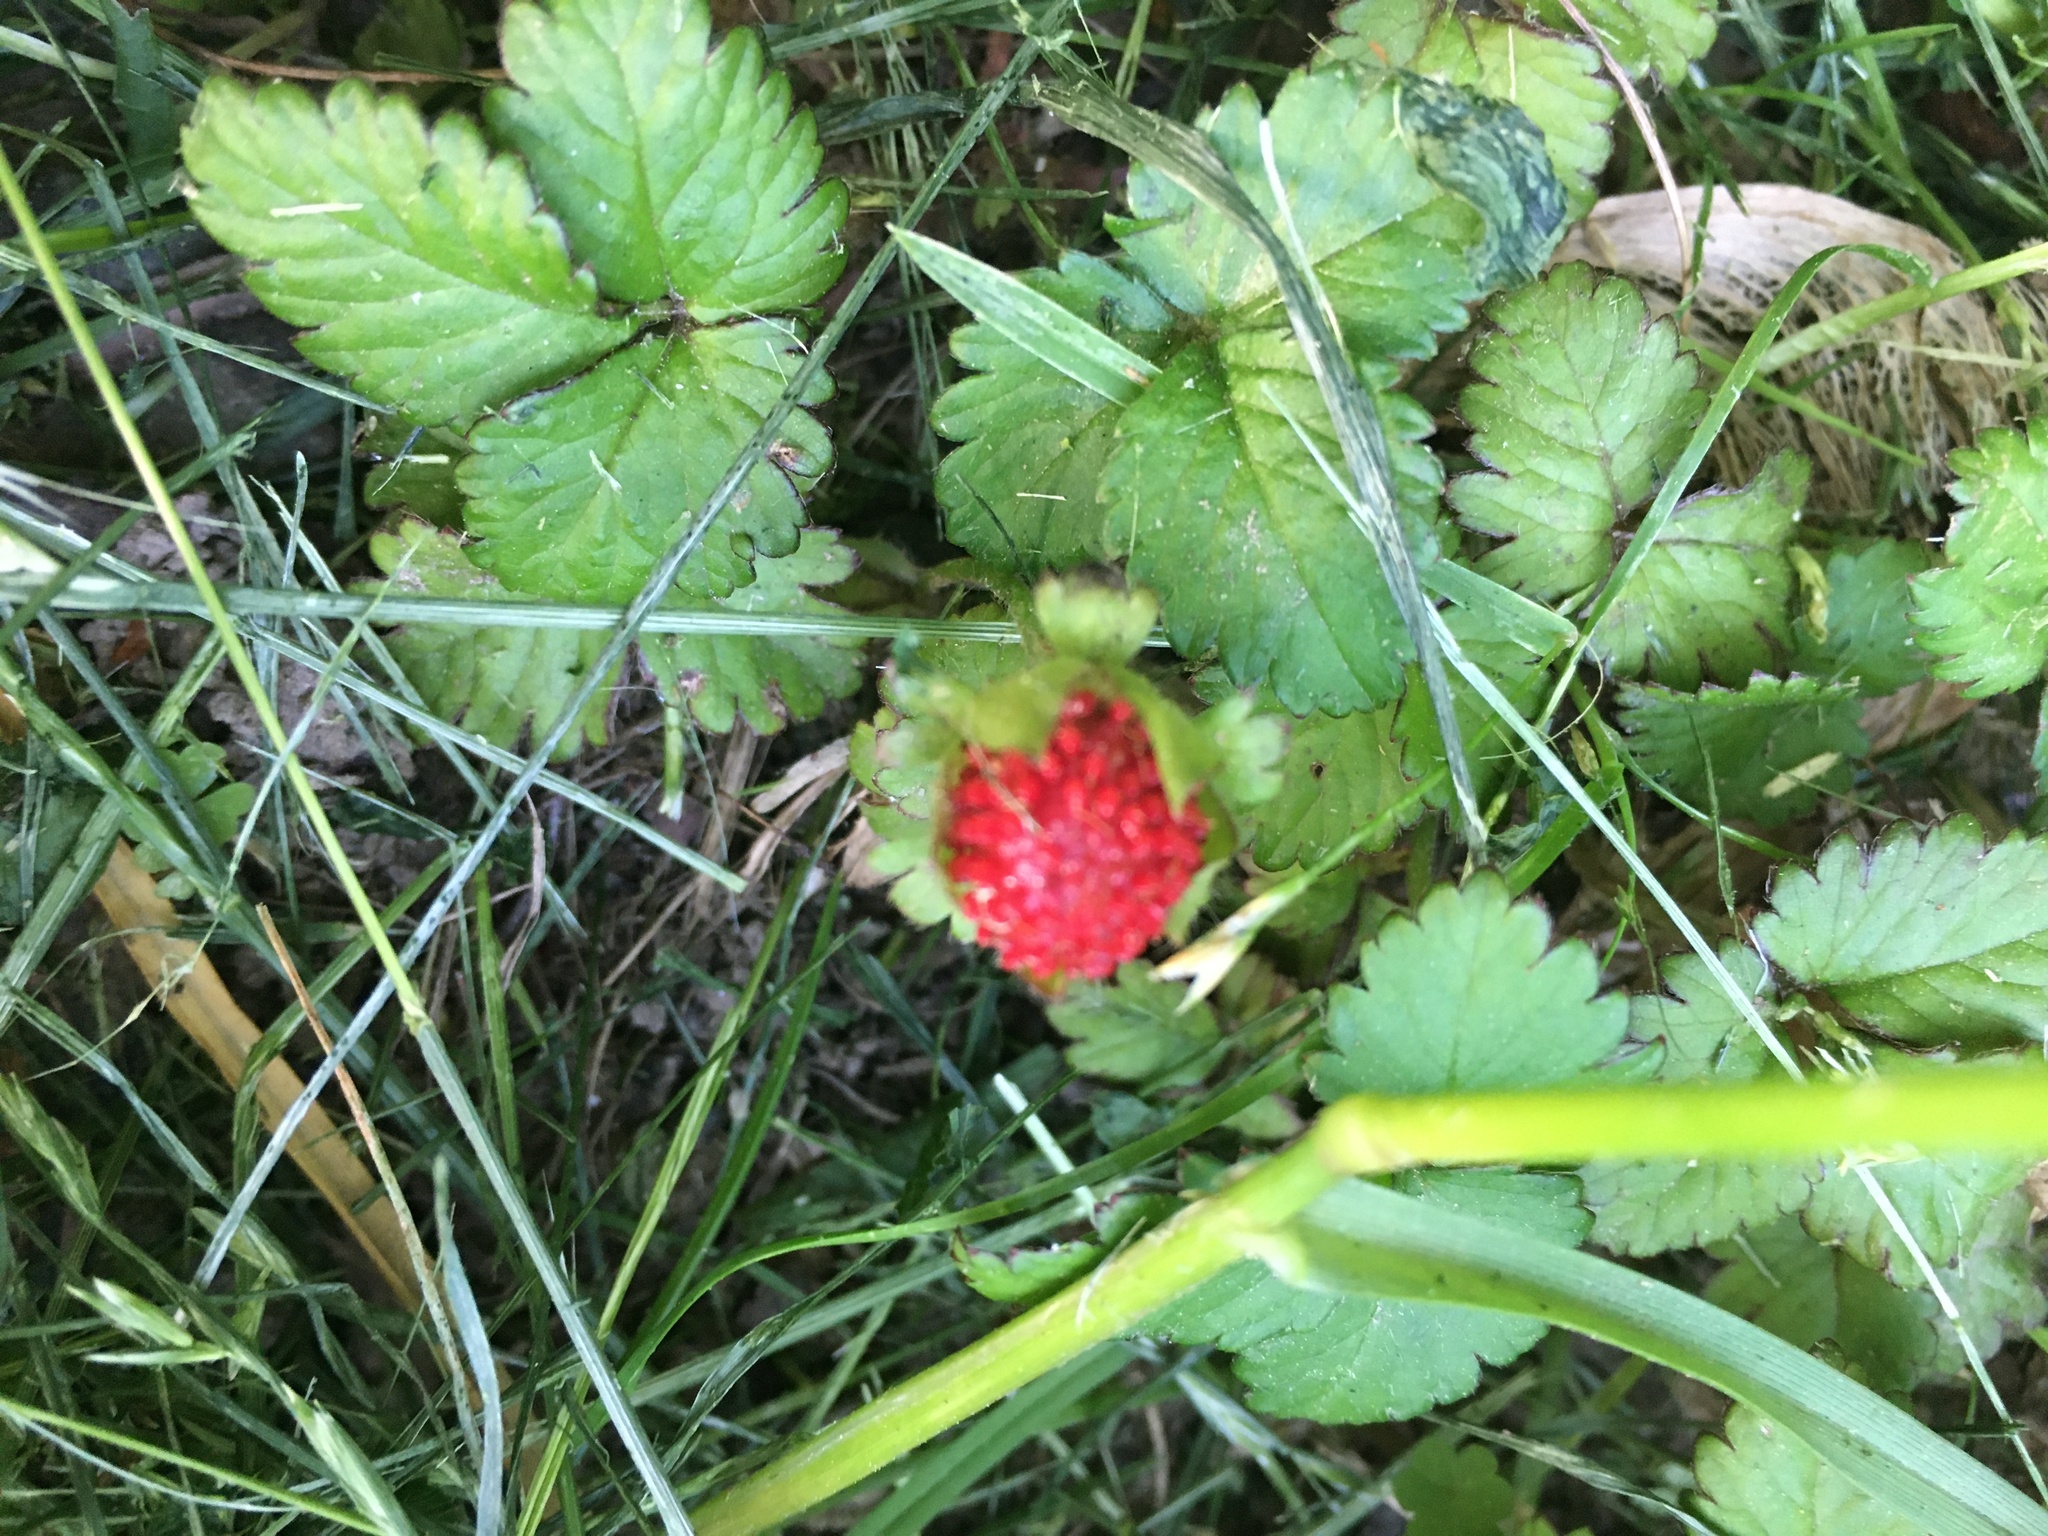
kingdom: Plantae
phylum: Tracheophyta
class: Magnoliopsida
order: Rosales
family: Rosaceae
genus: Potentilla
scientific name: Potentilla indica
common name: Yellow-flowered strawberry
